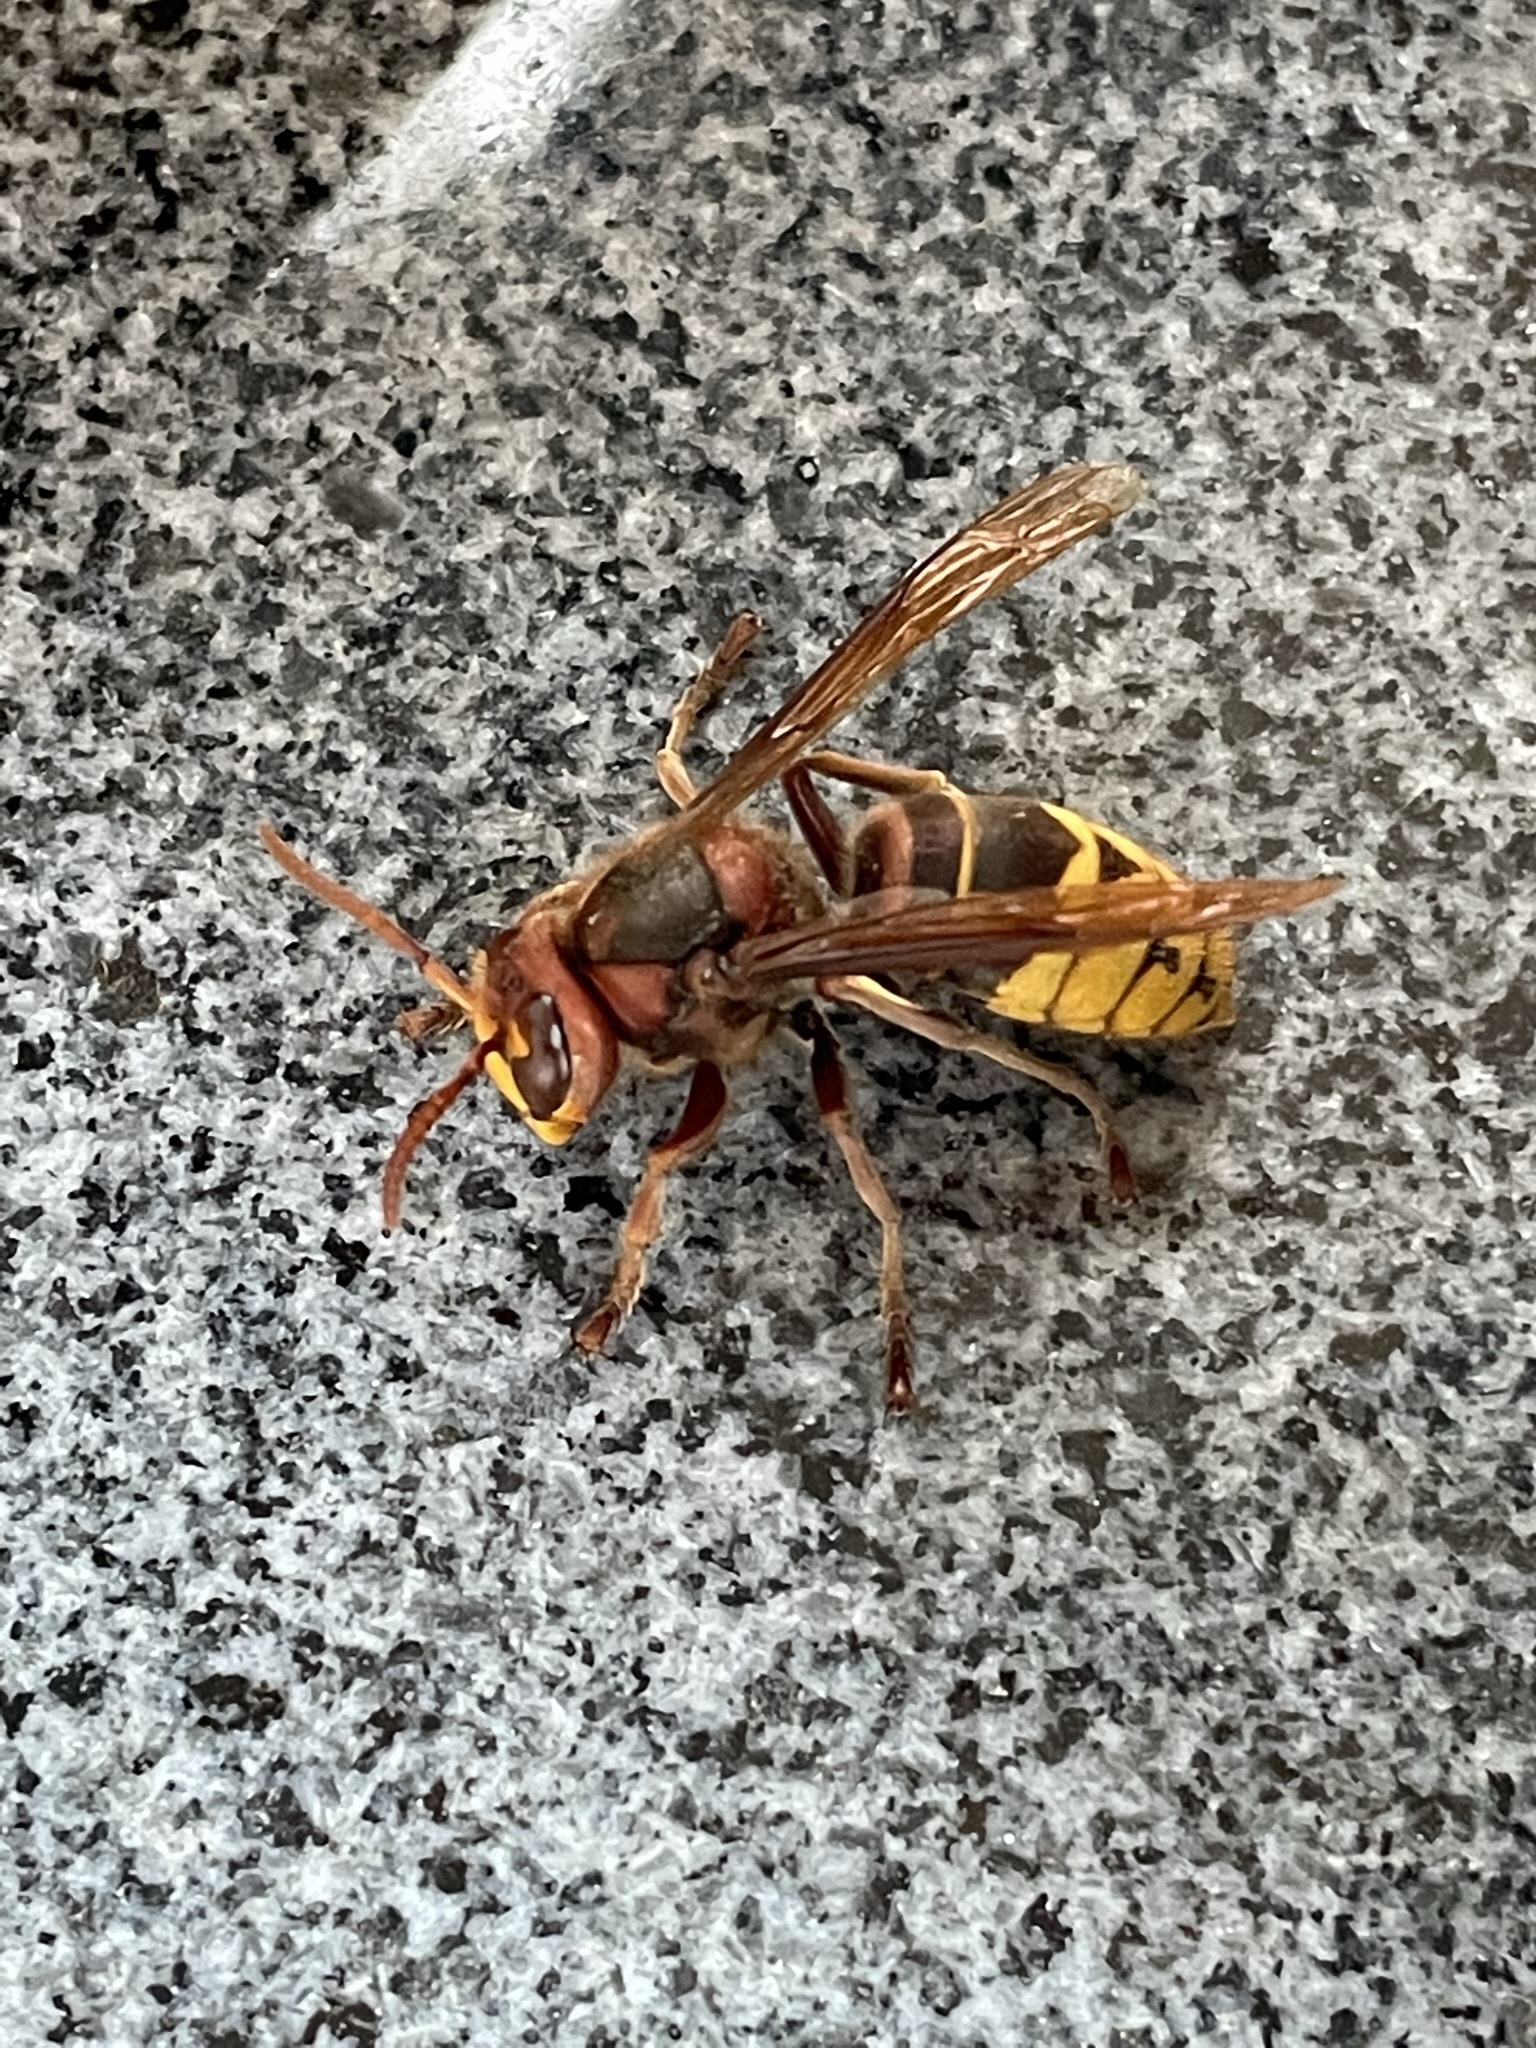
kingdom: Animalia
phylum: Arthropoda
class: Insecta
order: Hymenoptera
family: Vespidae
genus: Vespa
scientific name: Vespa crabro
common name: Hornet
